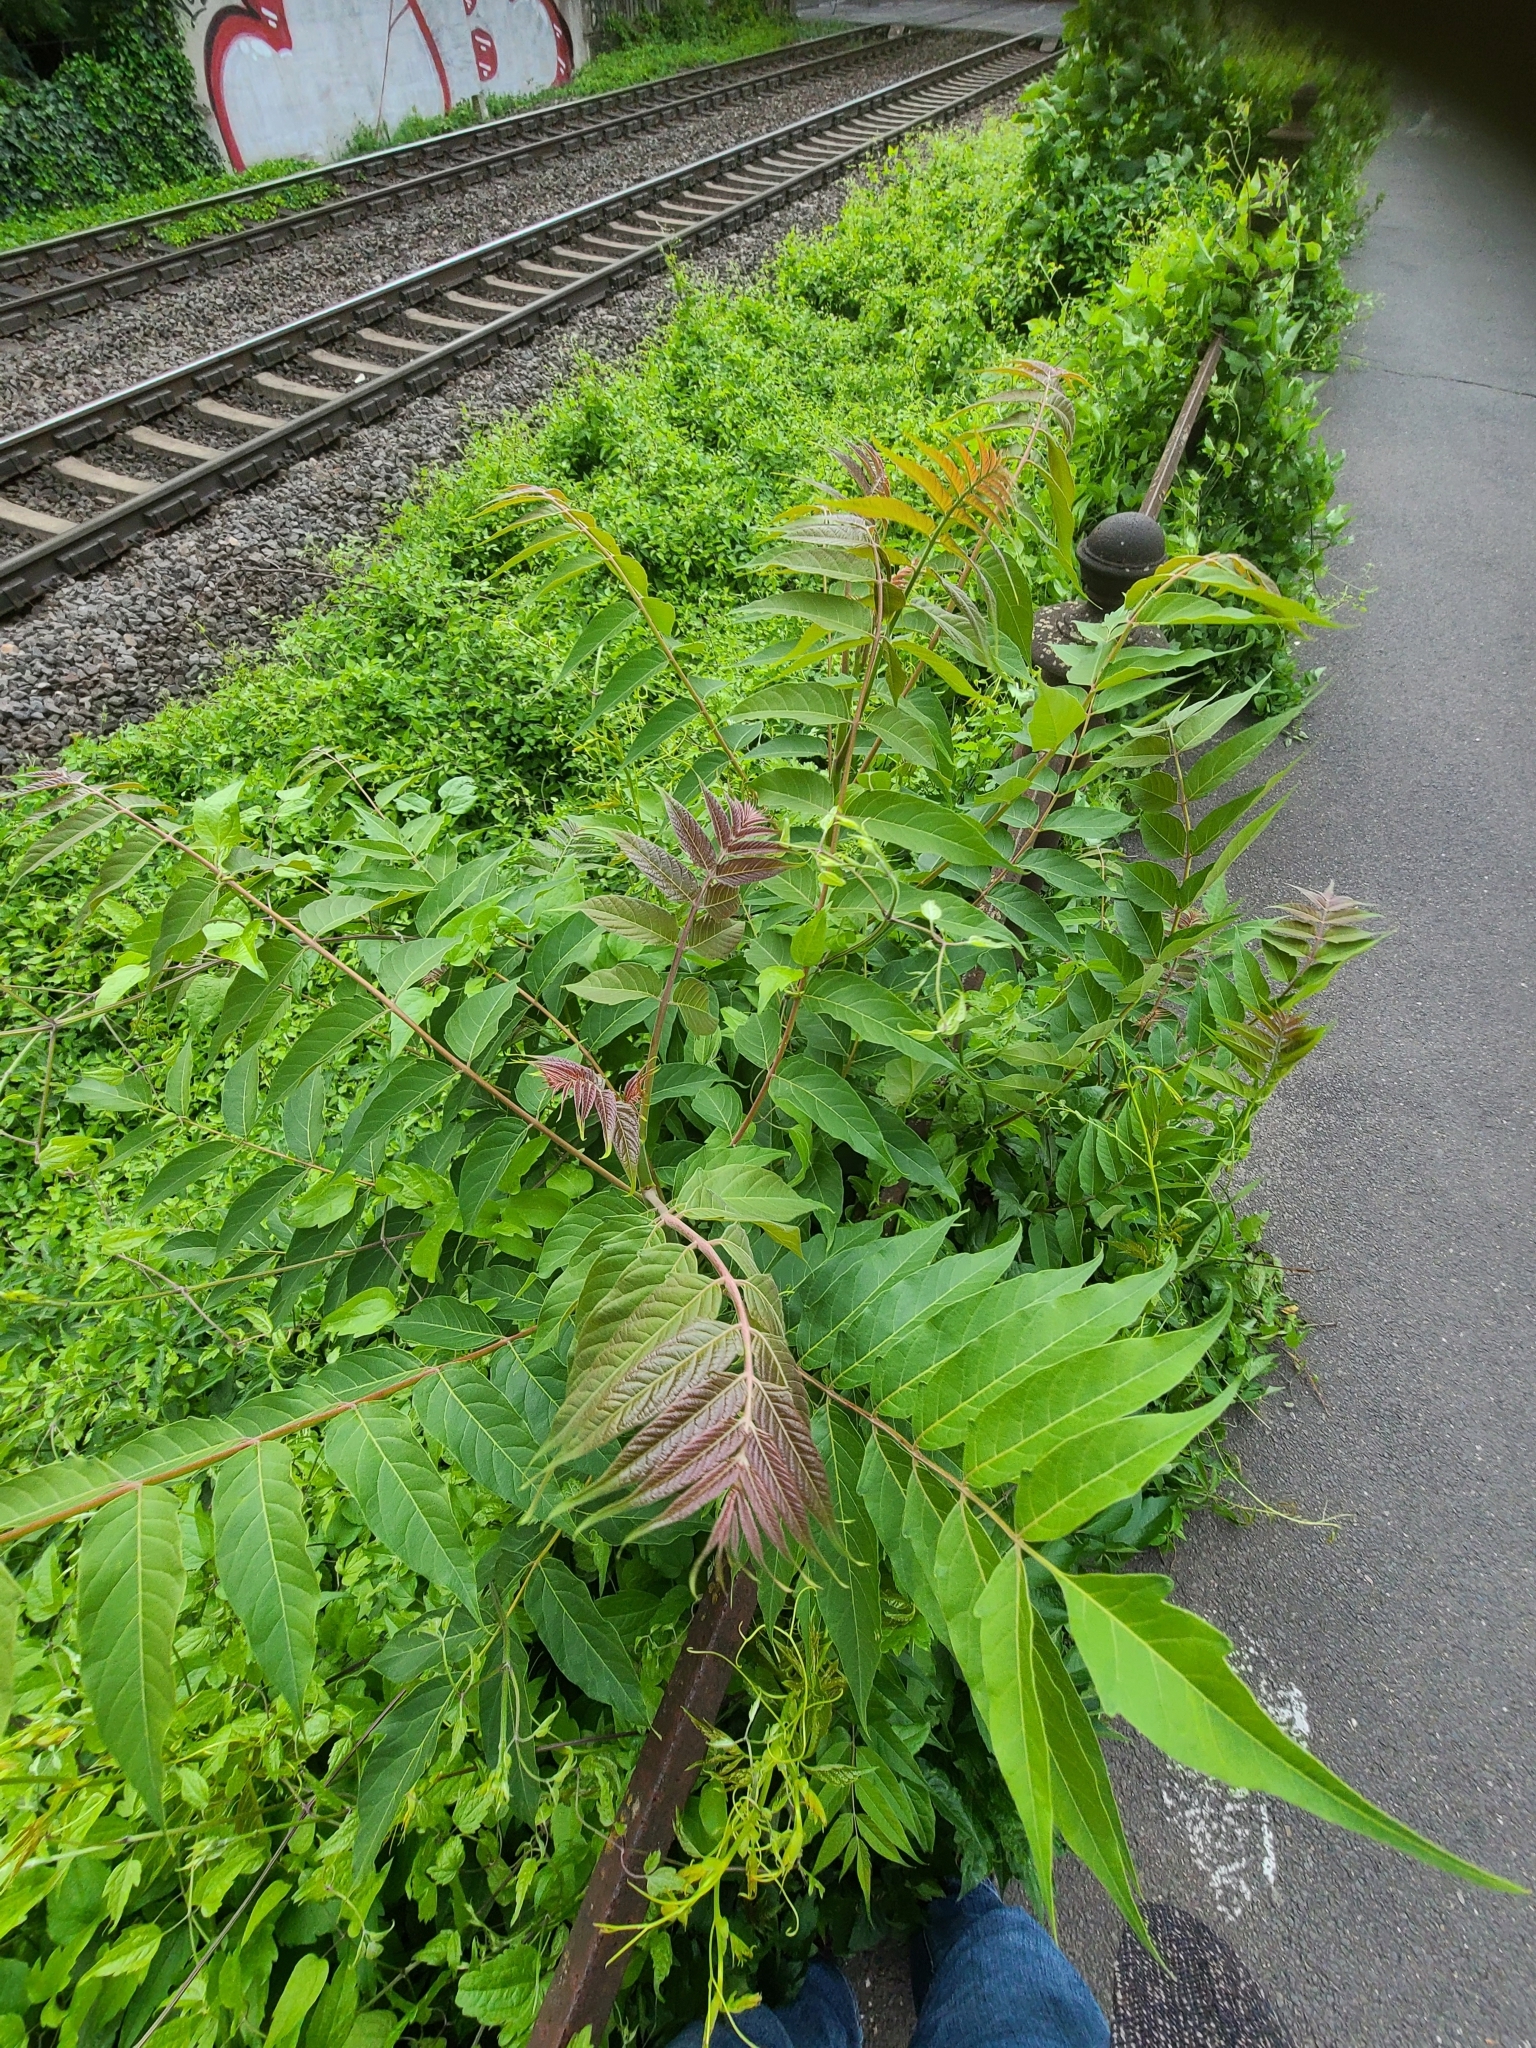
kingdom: Plantae
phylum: Tracheophyta
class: Magnoliopsida
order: Sapindales
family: Simaroubaceae
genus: Ailanthus
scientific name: Ailanthus altissima
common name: Tree-of-heaven
